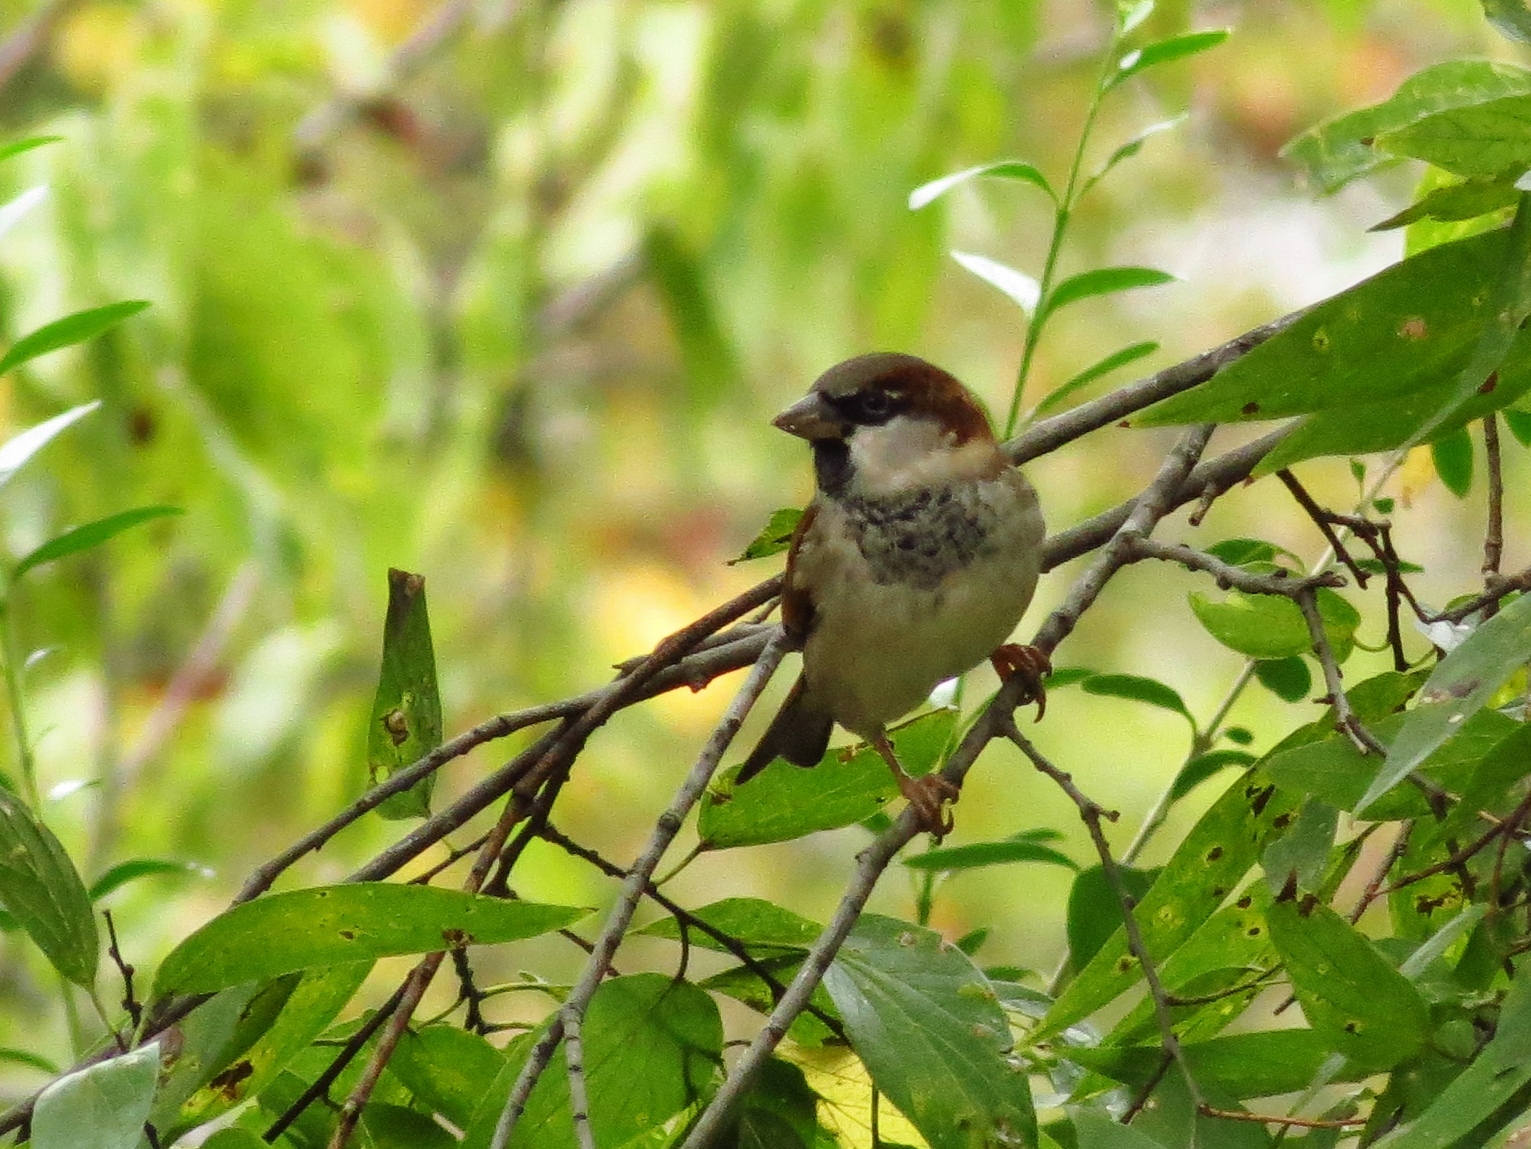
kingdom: Animalia
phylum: Chordata
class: Aves
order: Passeriformes
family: Passeridae
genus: Passer
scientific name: Passer domesticus
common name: House sparrow
